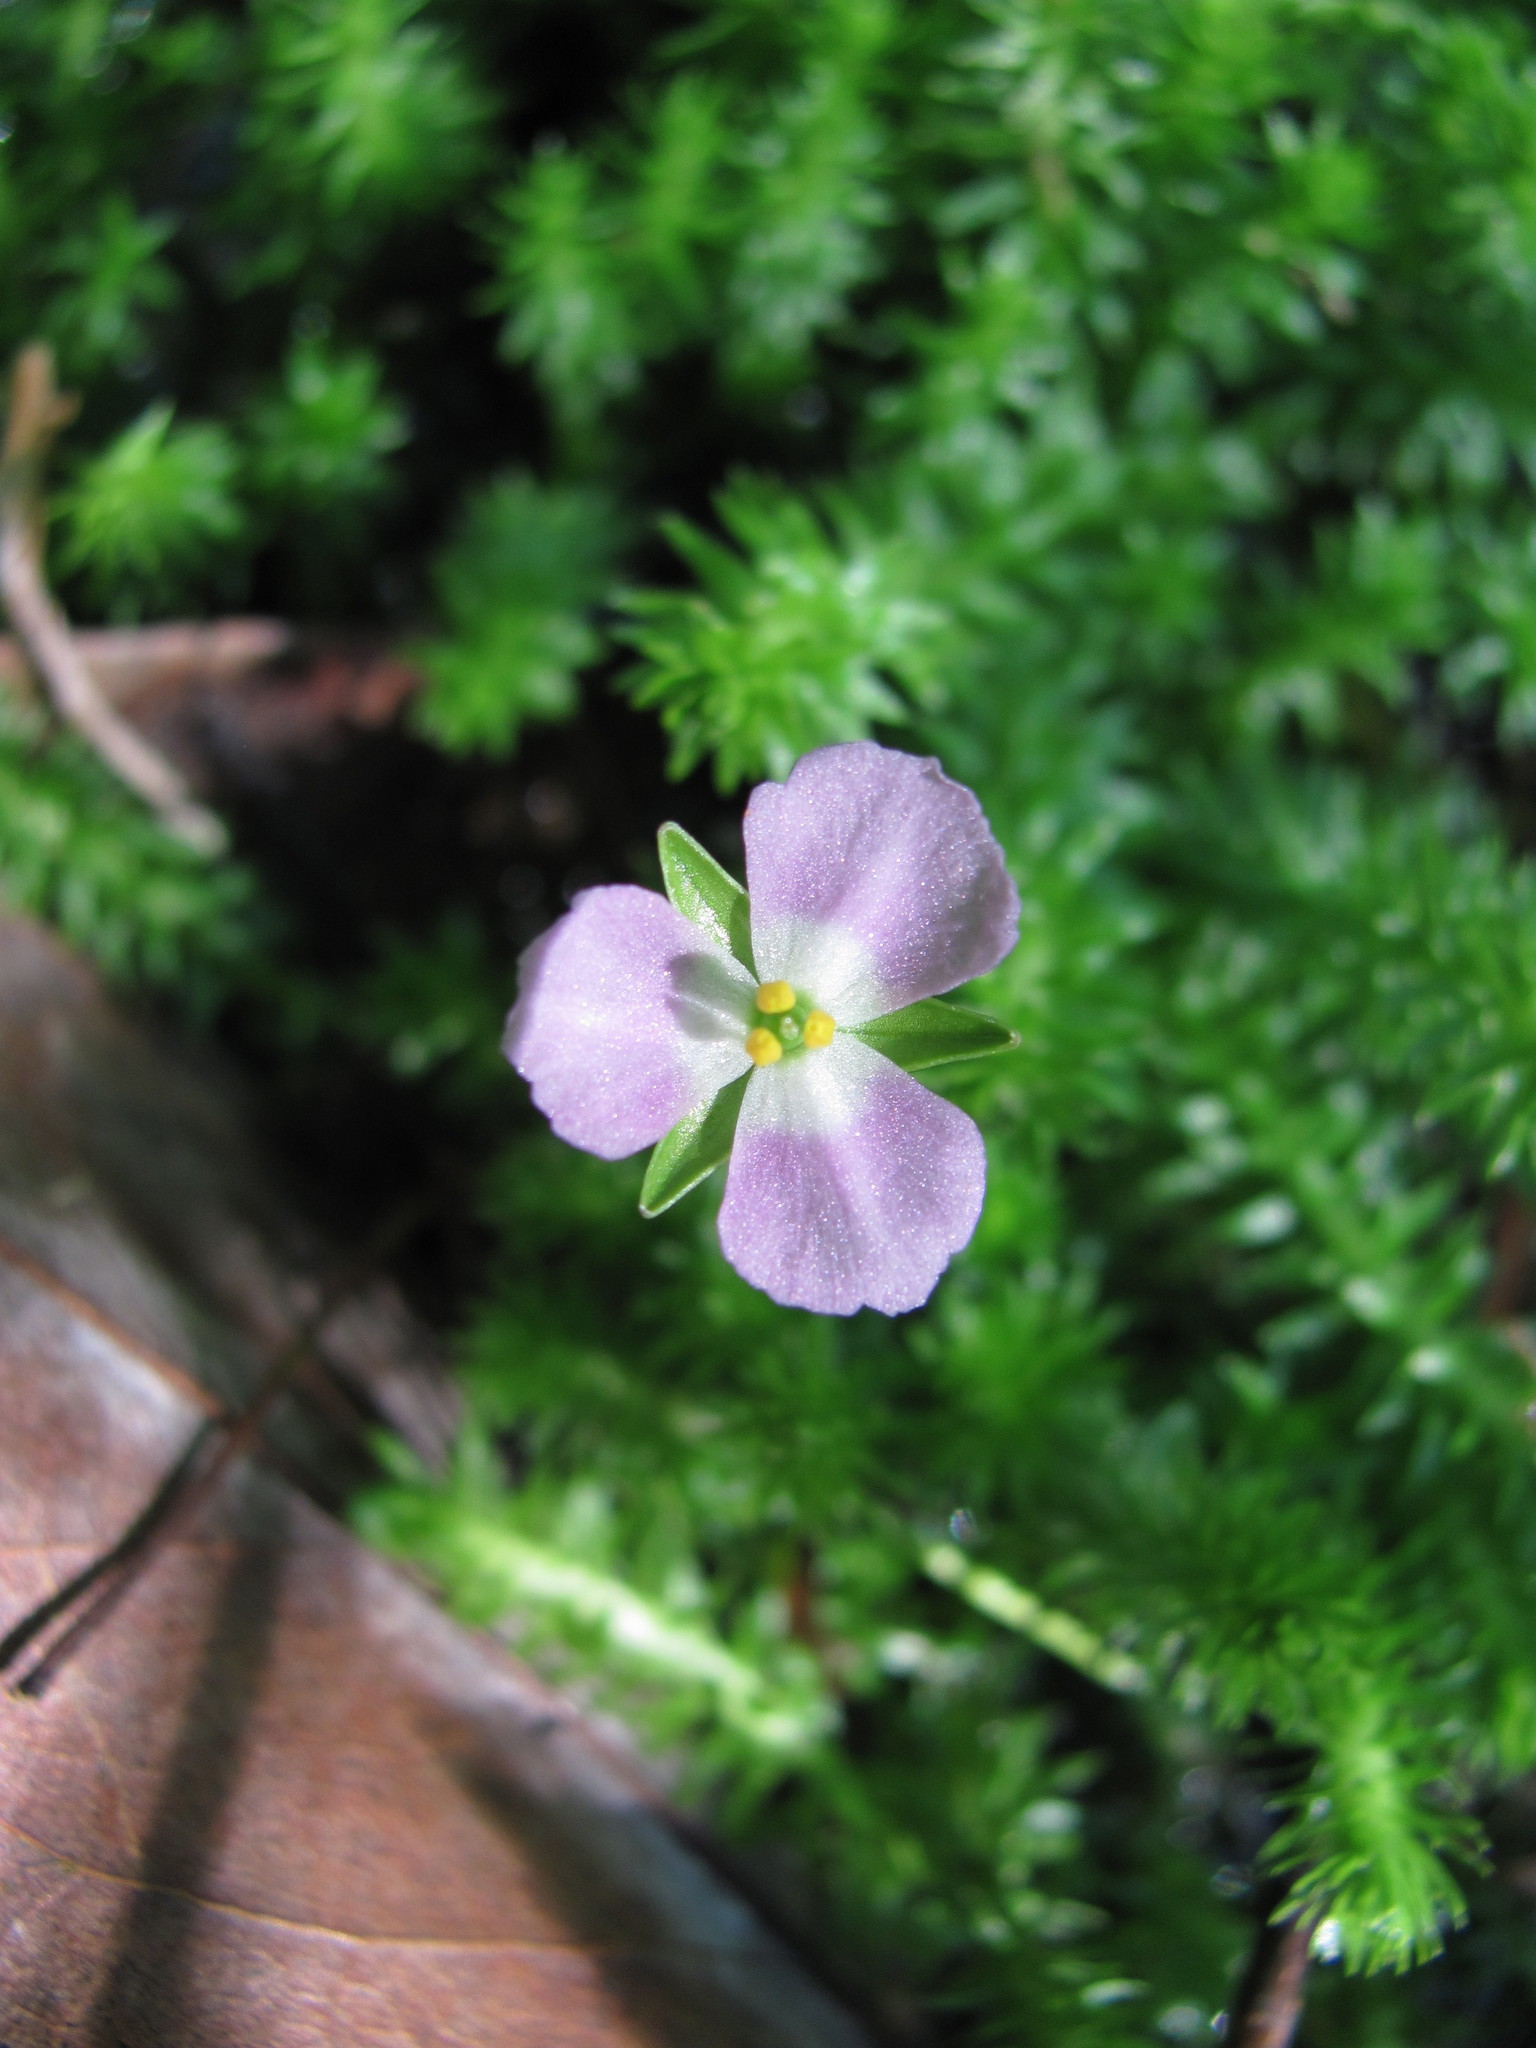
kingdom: Plantae
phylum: Tracheophyta
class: Liliopsida
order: Poales
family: Mayacaceae
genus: Mayaca
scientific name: Mayaca fluviatilis
